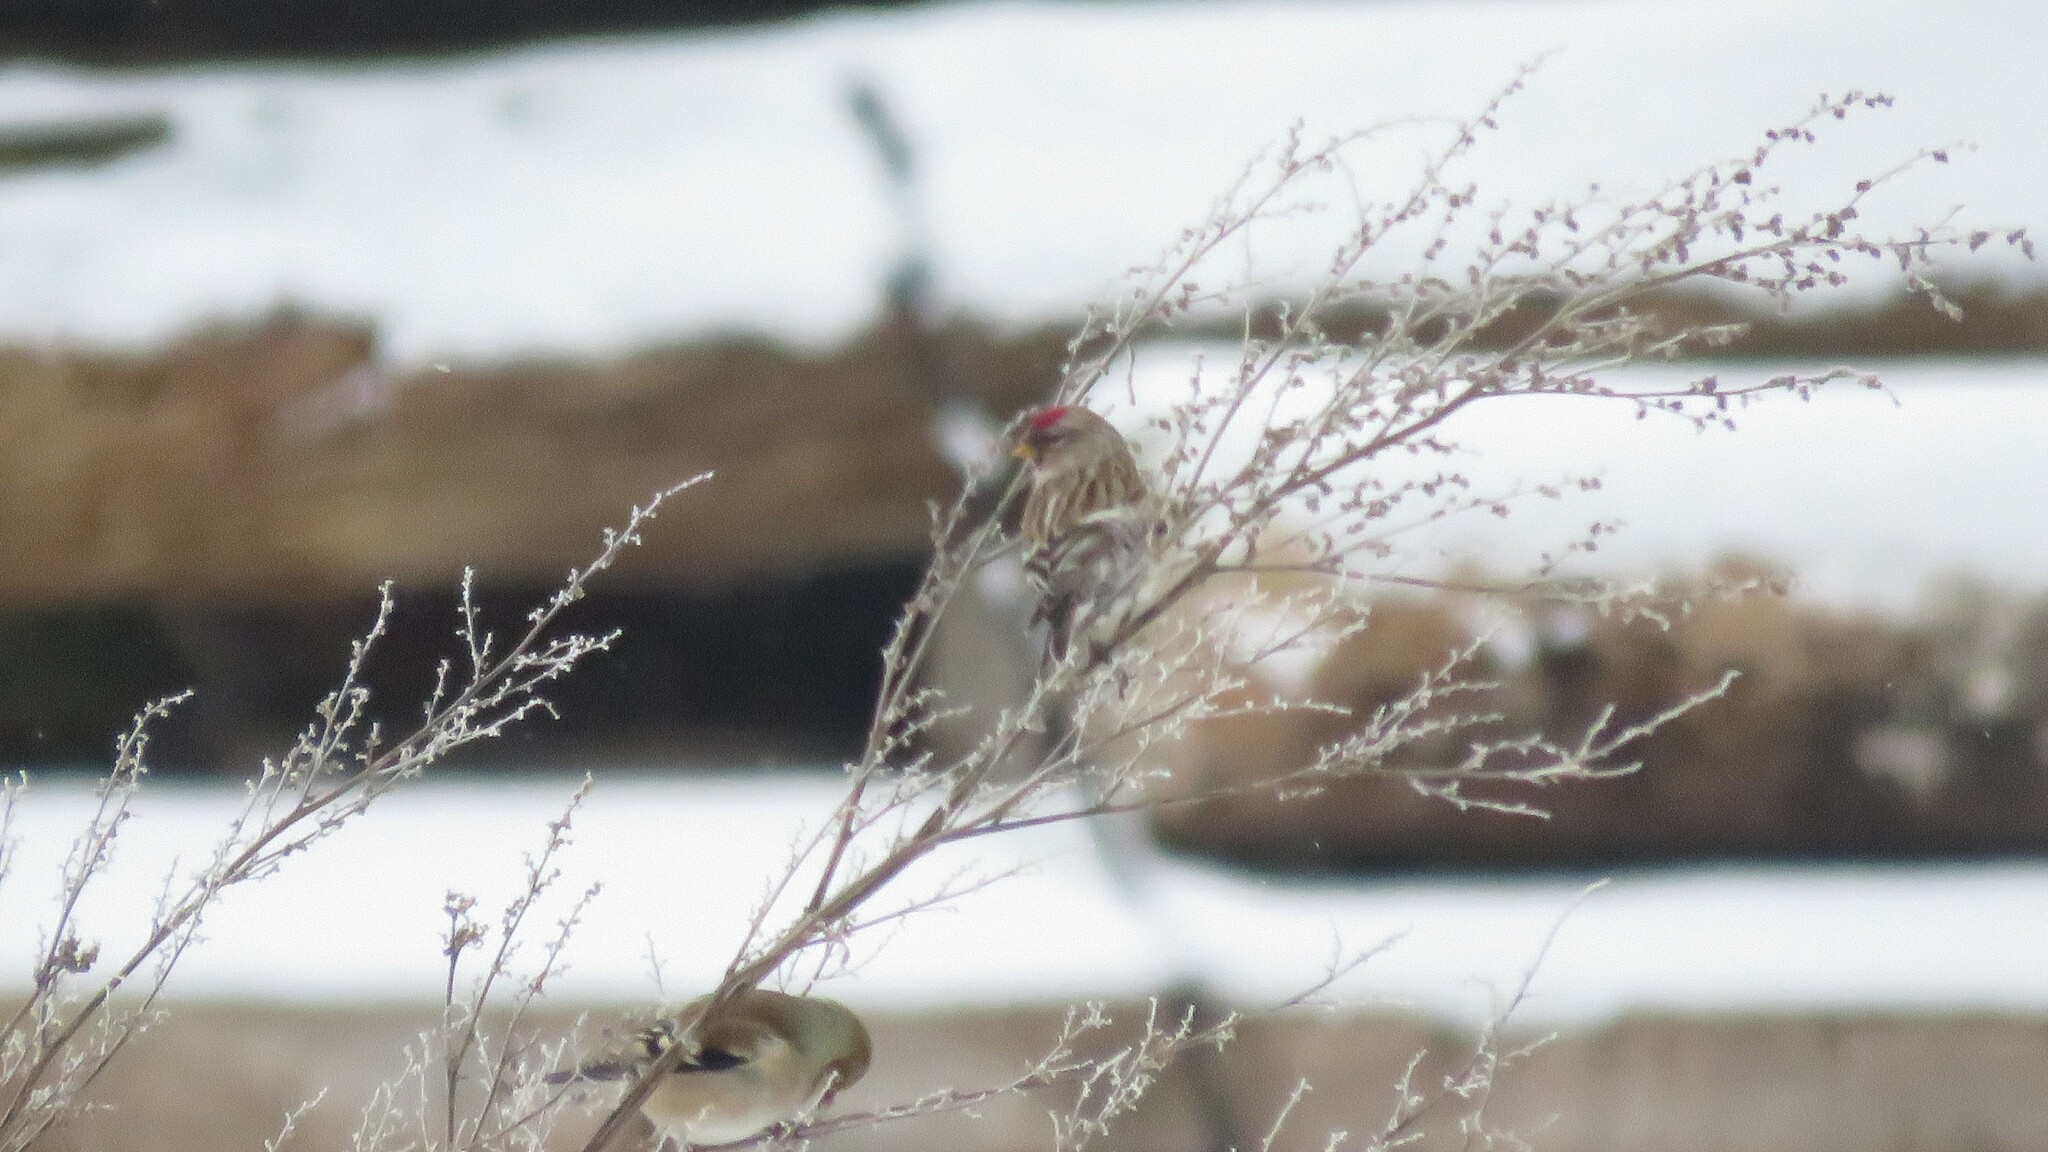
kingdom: Animalia
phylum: Chordata
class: Aves
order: Passeriformes
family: Fringillidae
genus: Acanthis
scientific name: Acanthis flammea
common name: Common redpoll
